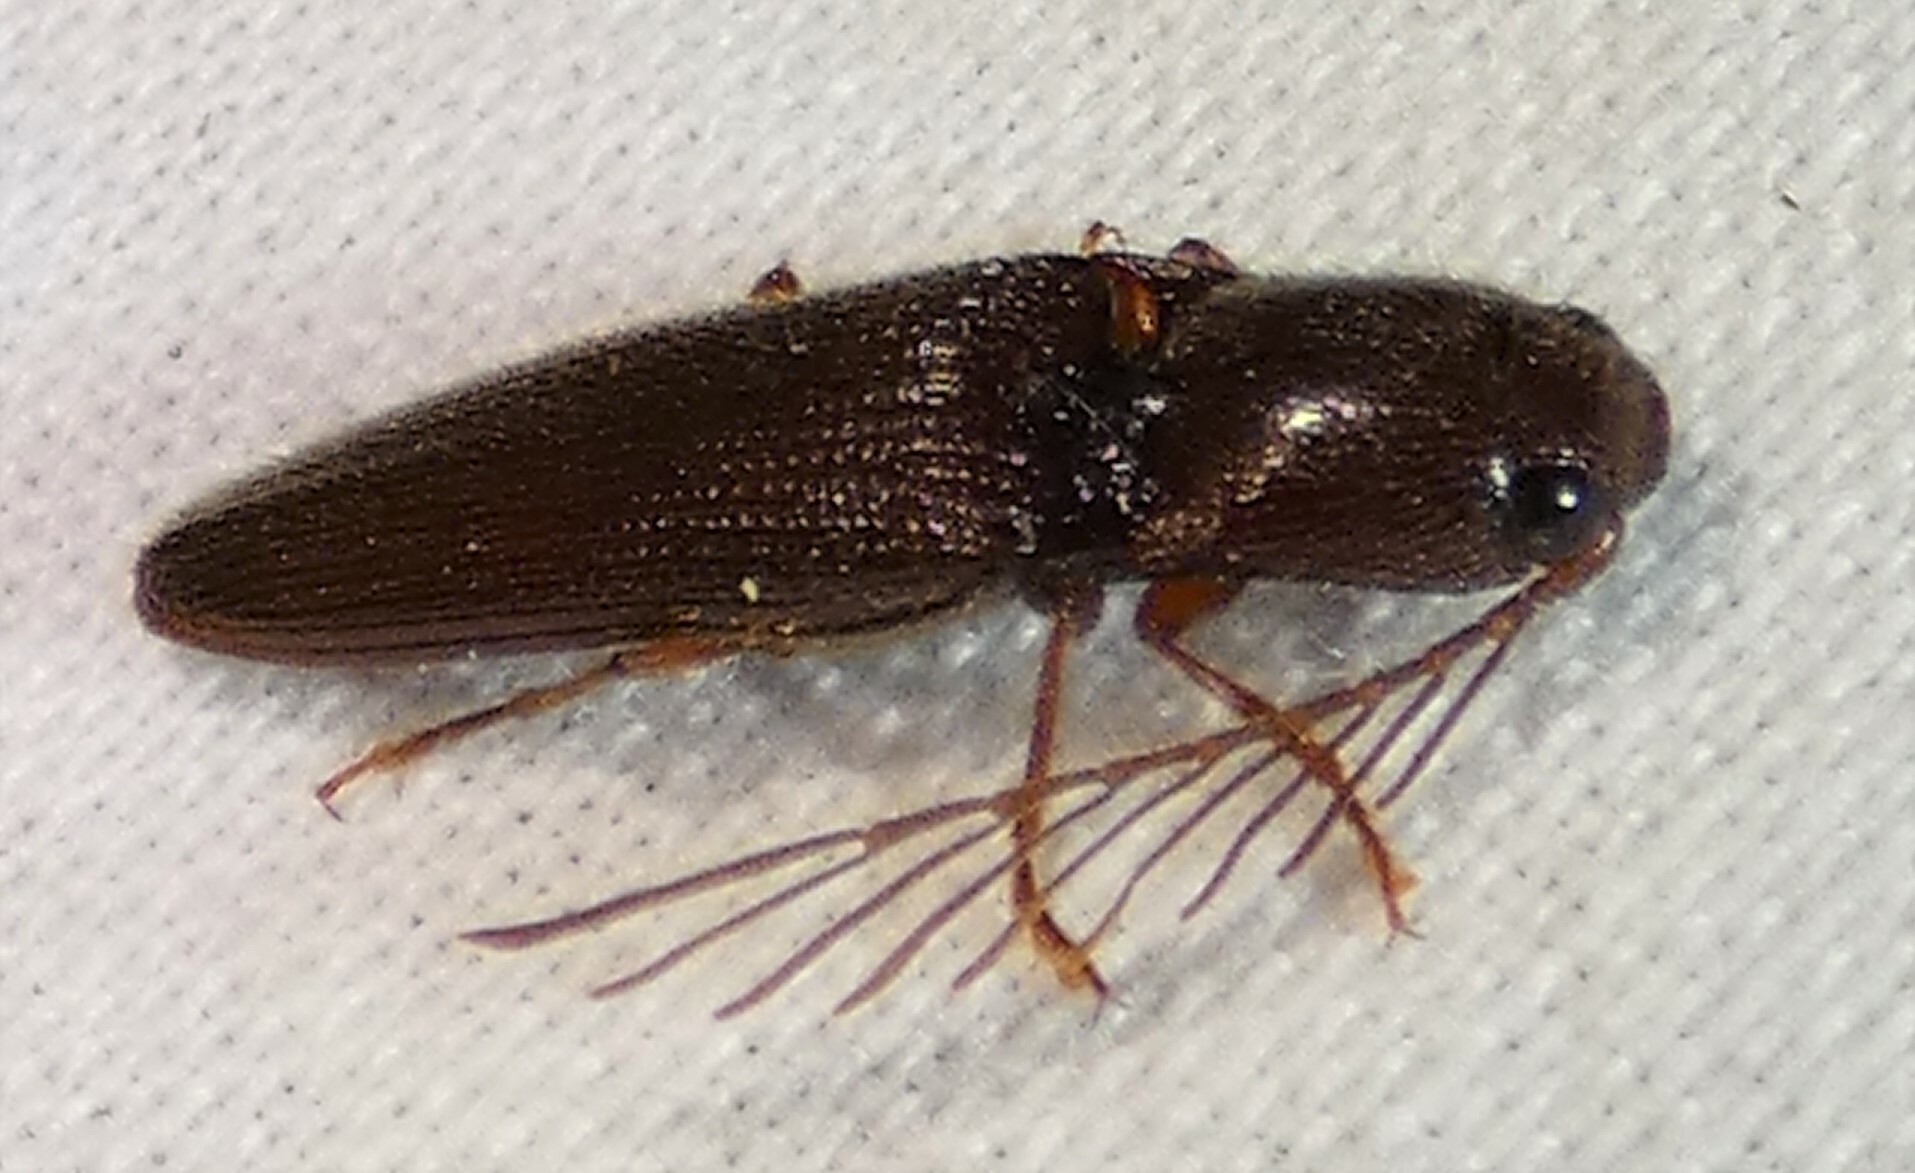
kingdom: Animalia
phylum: Arthropoda
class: Insecta
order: Coleoptera
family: Elateridae
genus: Dicrepidius
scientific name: Dicrepidius palmatus
